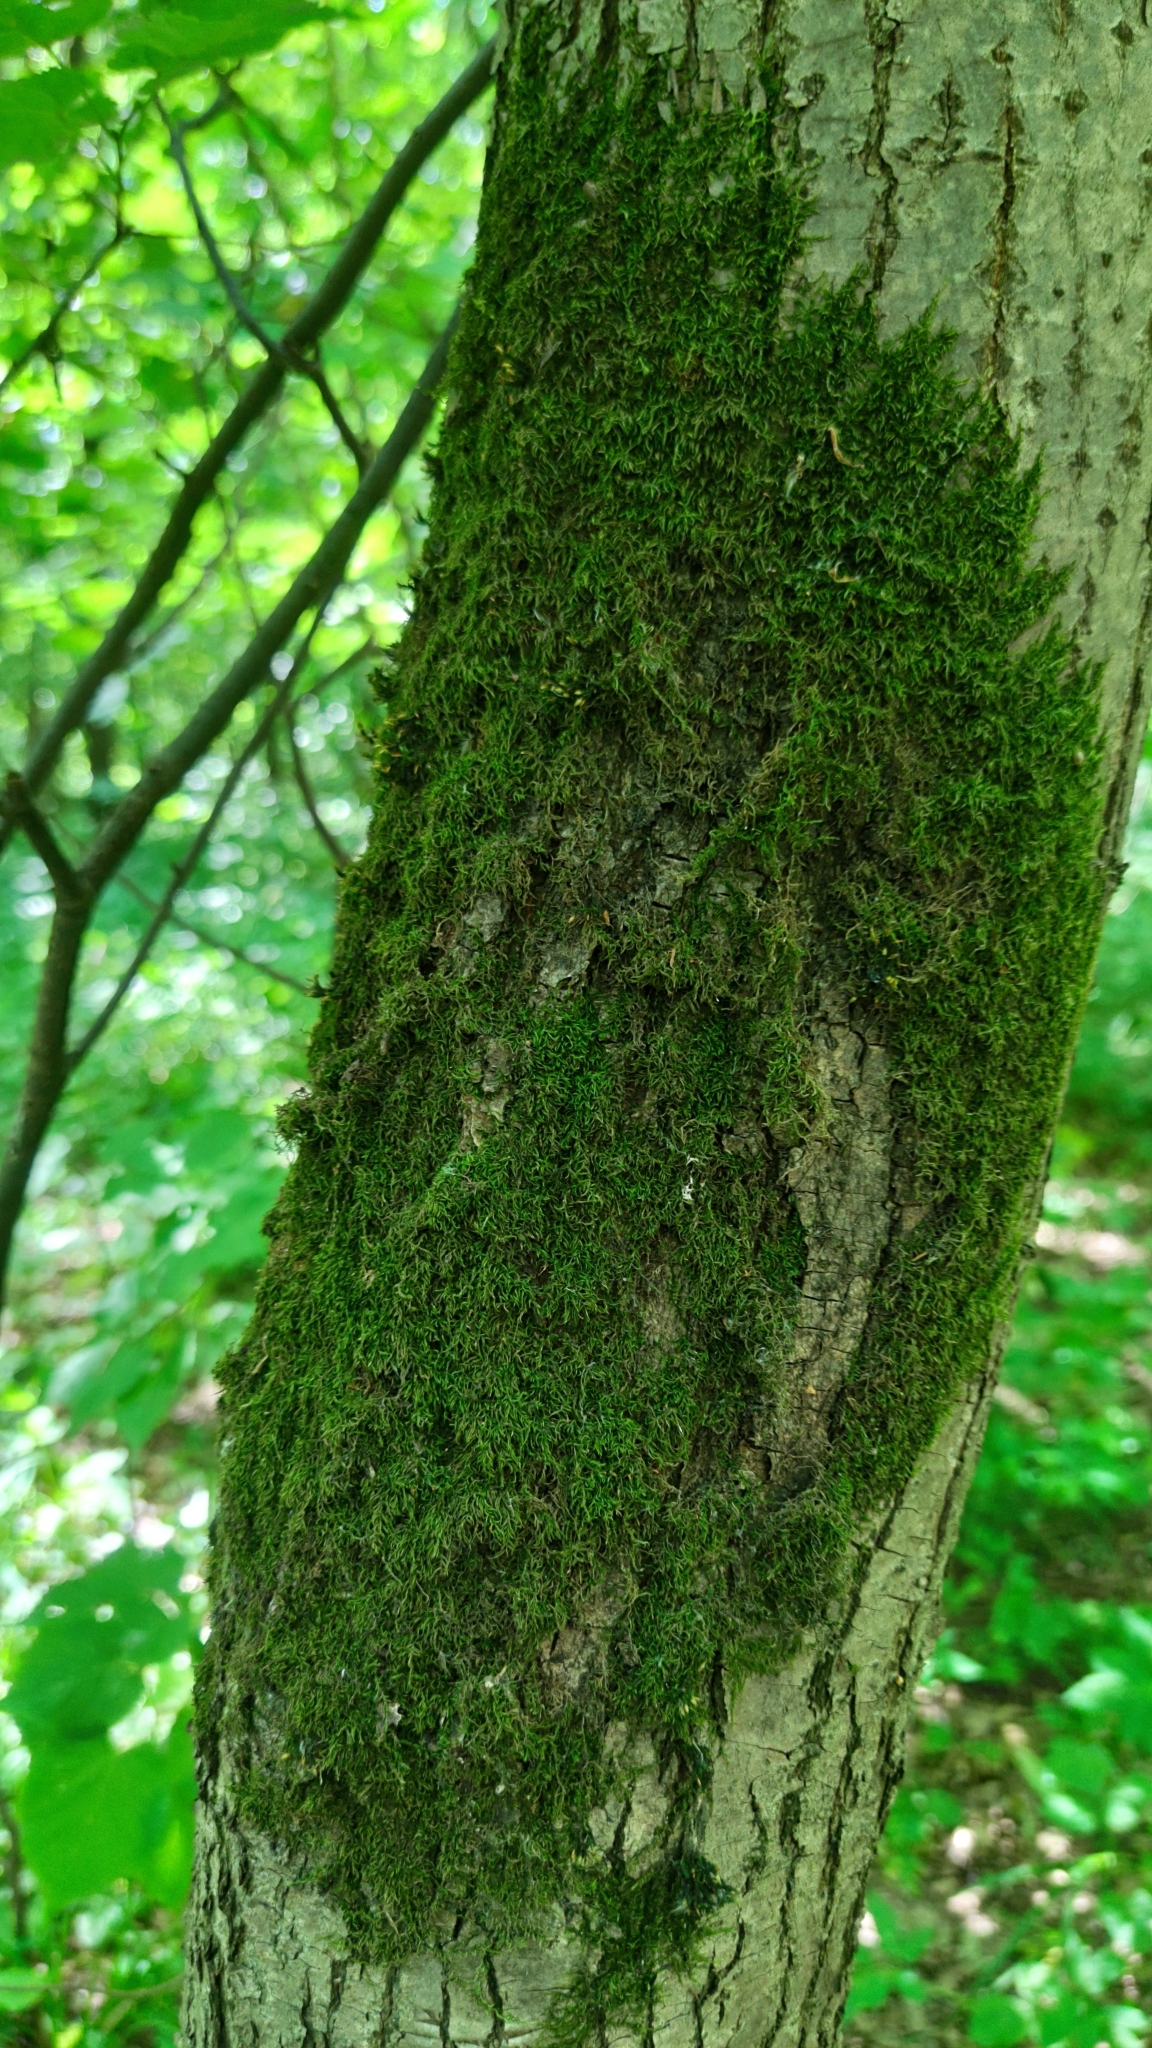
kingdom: Plantae
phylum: Bryophyta
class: Bryopsida
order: Orthotrichales
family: Orthotrichaceae
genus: Lewinskya
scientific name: Lewinskya speciosa
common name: Showy bristle moss
